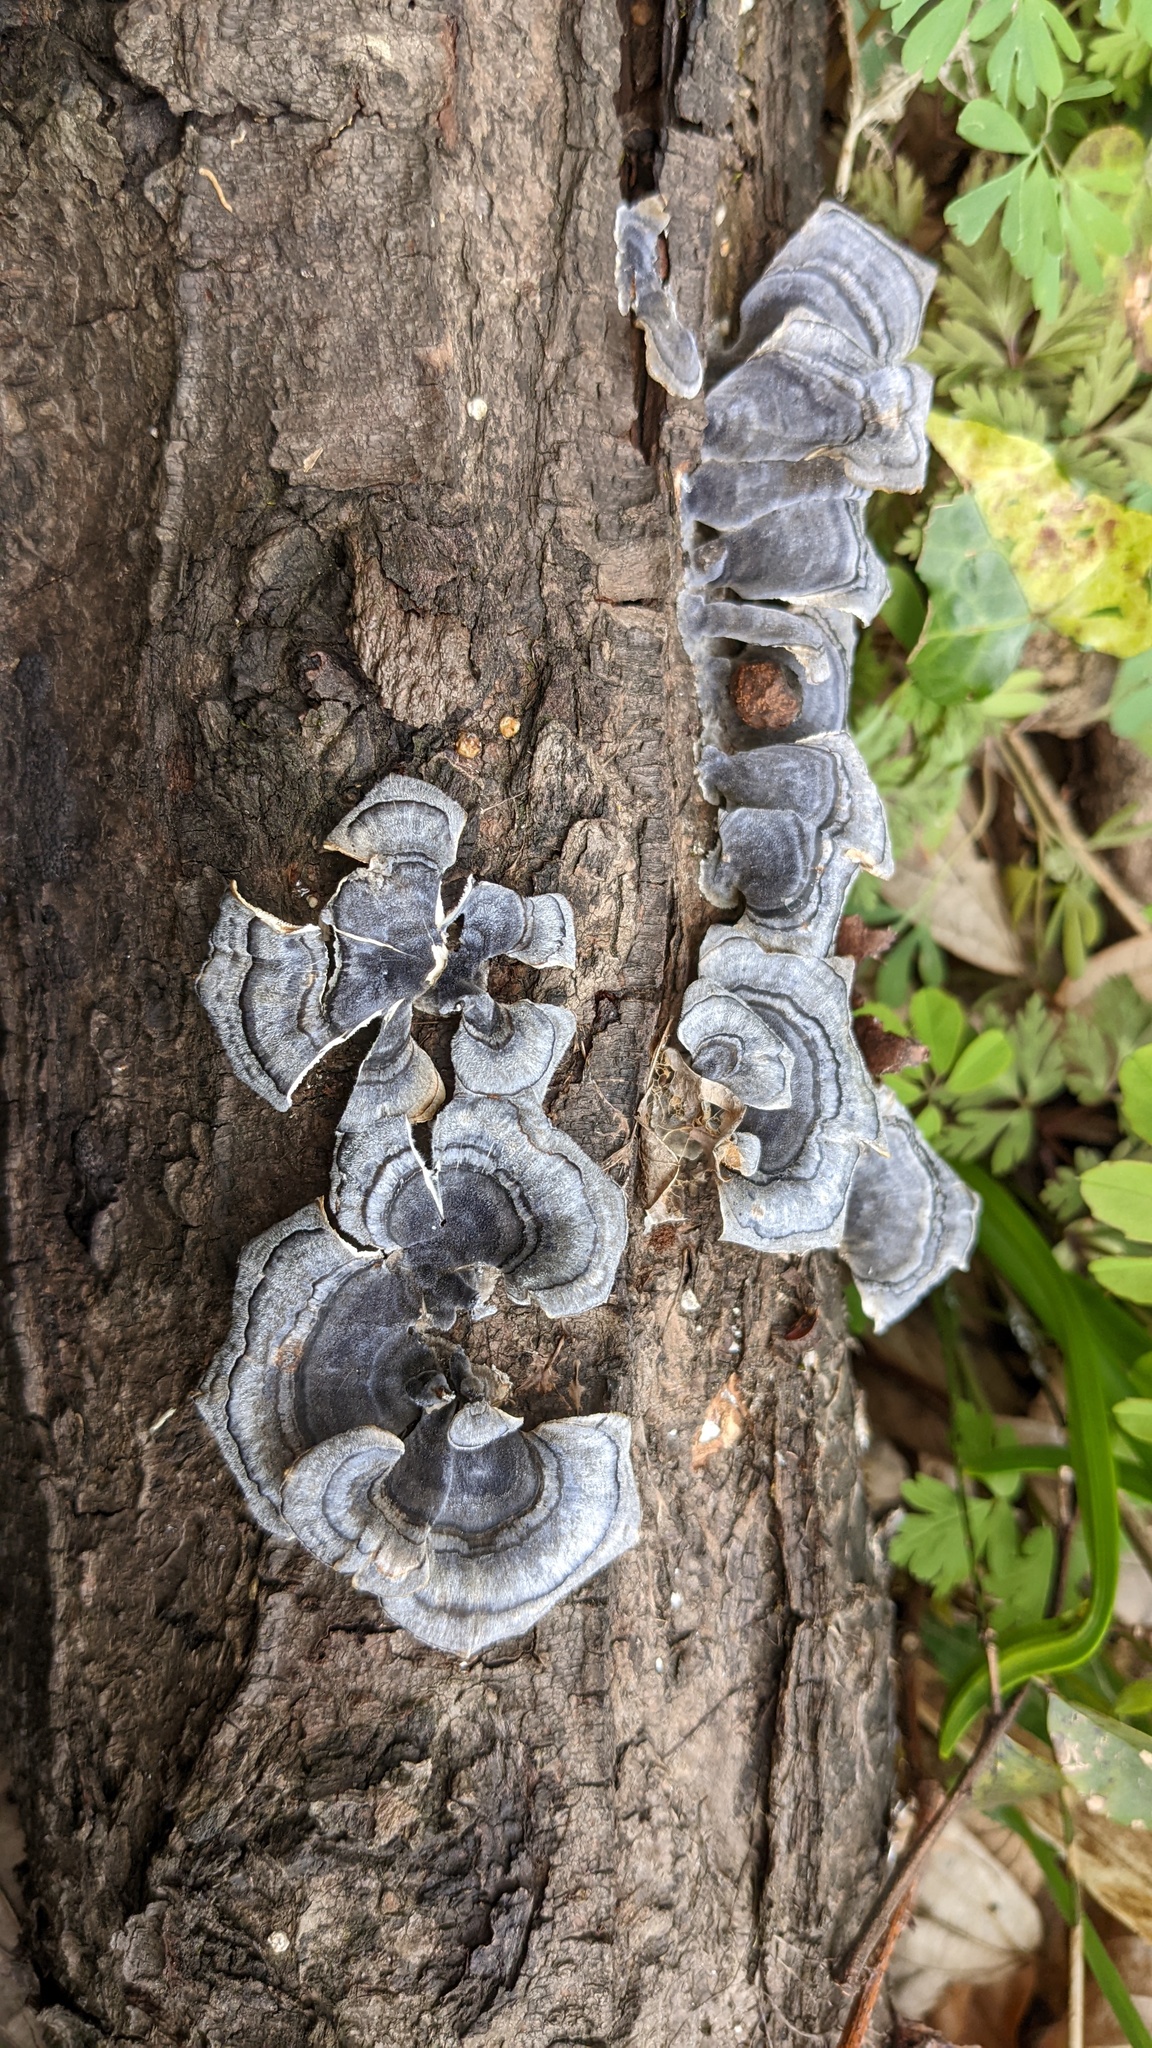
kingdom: Fungi
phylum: Basidiomycota
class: Agaricomycetes
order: Polyporales
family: Polyporaceae
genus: Trametes
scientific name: Trametes versicolor
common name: Turkeytail
